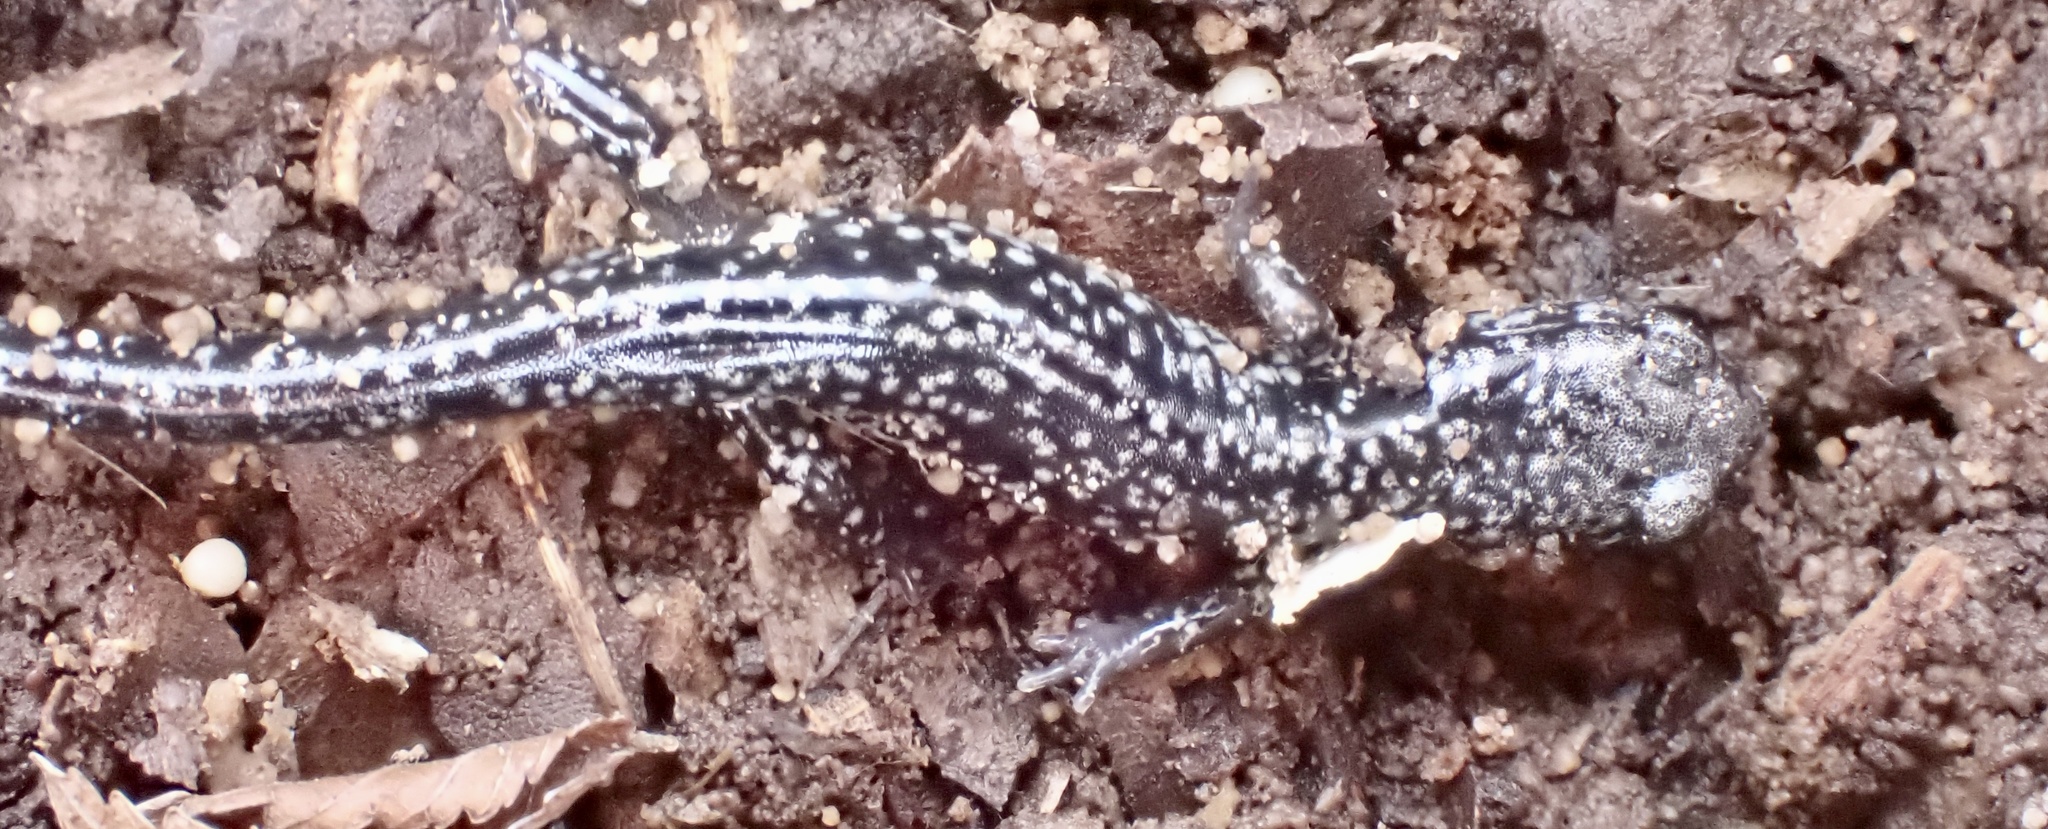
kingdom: Animalia
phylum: Chordata
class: Amphibia
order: Caudata
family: Plethodontidae
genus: Plethodon
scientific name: Plethodon mississippi
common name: Mississippi slimy salamander
